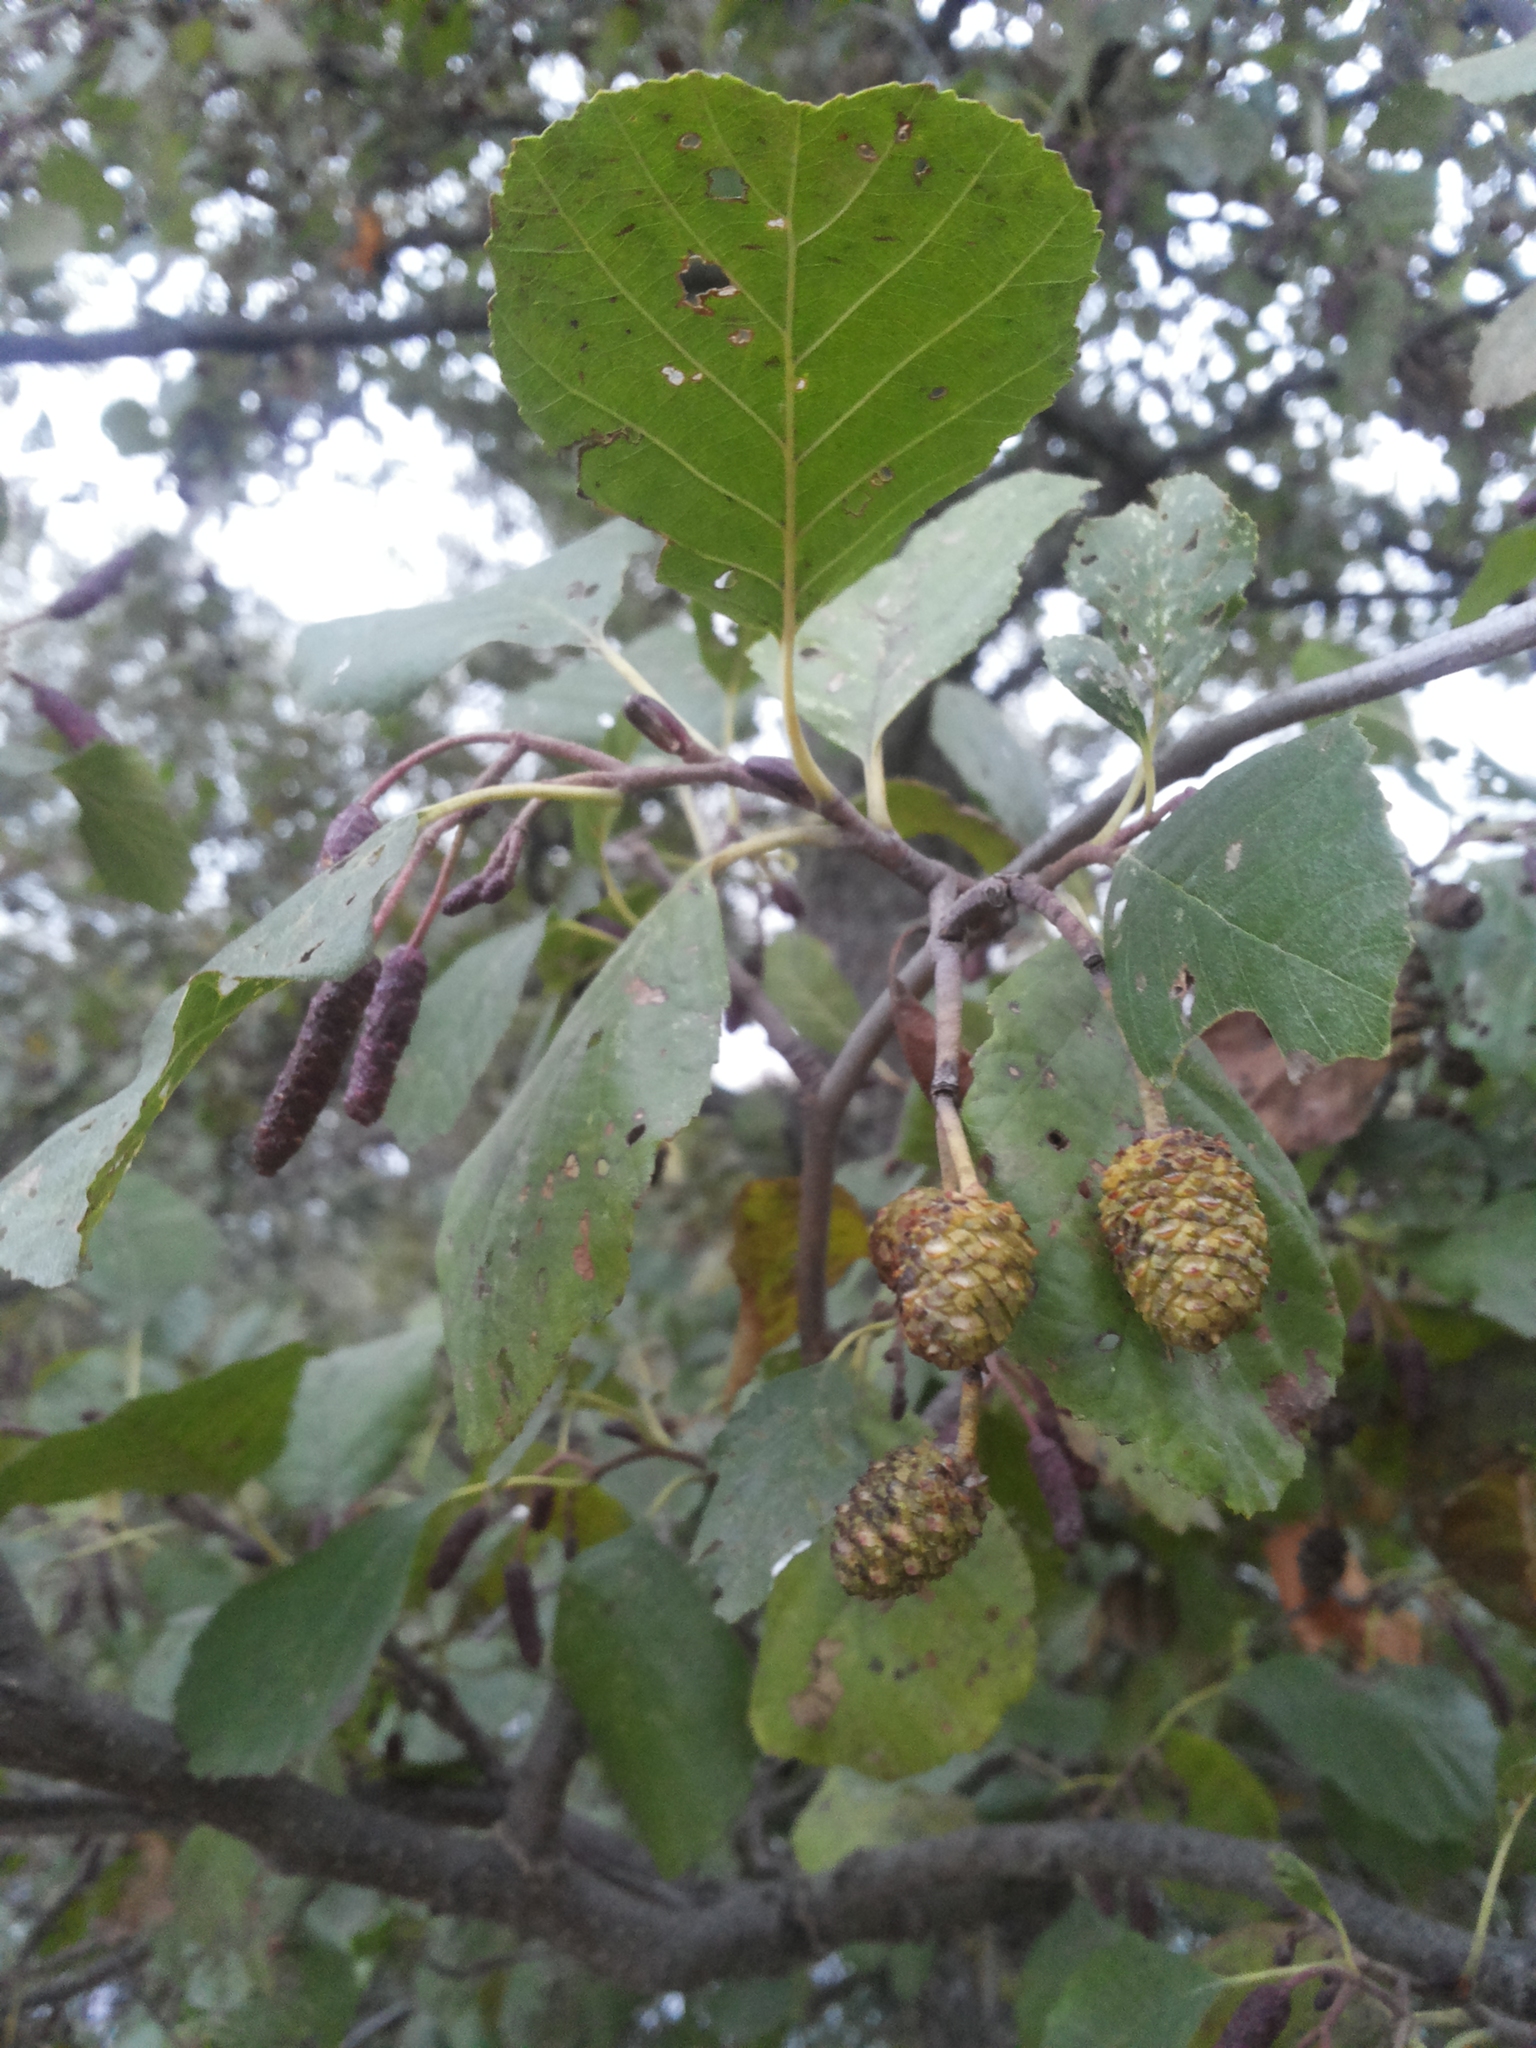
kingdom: Plantae
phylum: Tracheophyta
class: Magnoliopsida
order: Fagales
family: Betulaceae
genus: Alnus
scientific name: Alnus glutinosa
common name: Black alder
